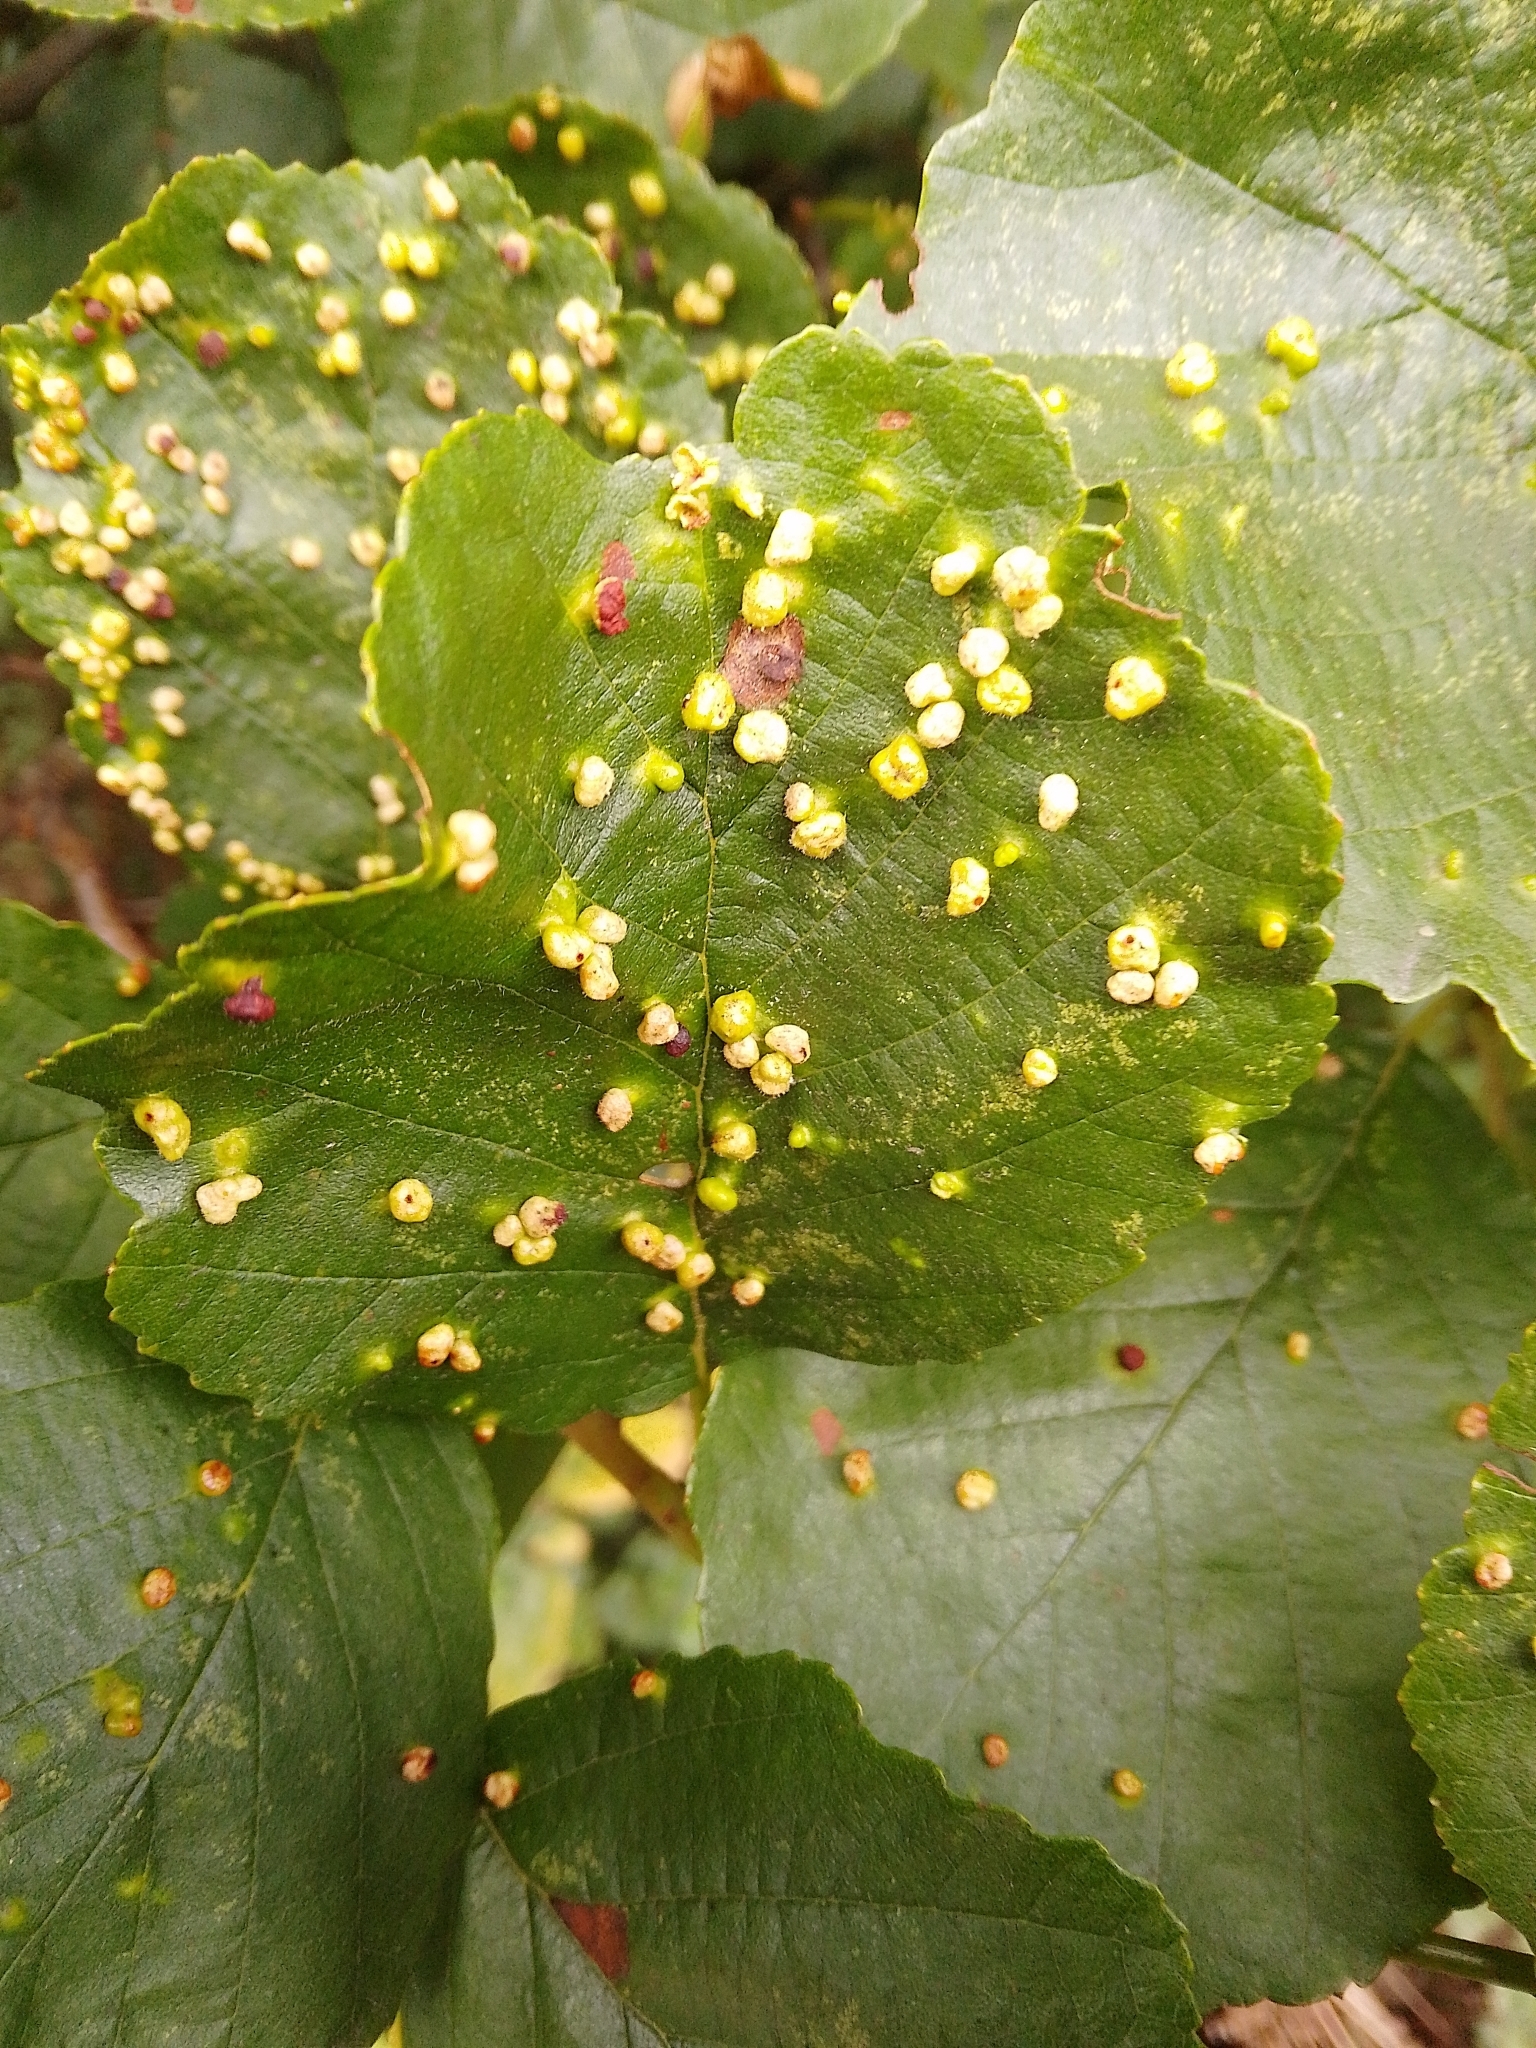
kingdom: Animalia
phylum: Arthropoda
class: Arachnida
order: Trombidiformes
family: Eriophyidae
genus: Eriophyes
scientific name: Eriophyes laevis
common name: Alder leaf gall mite
